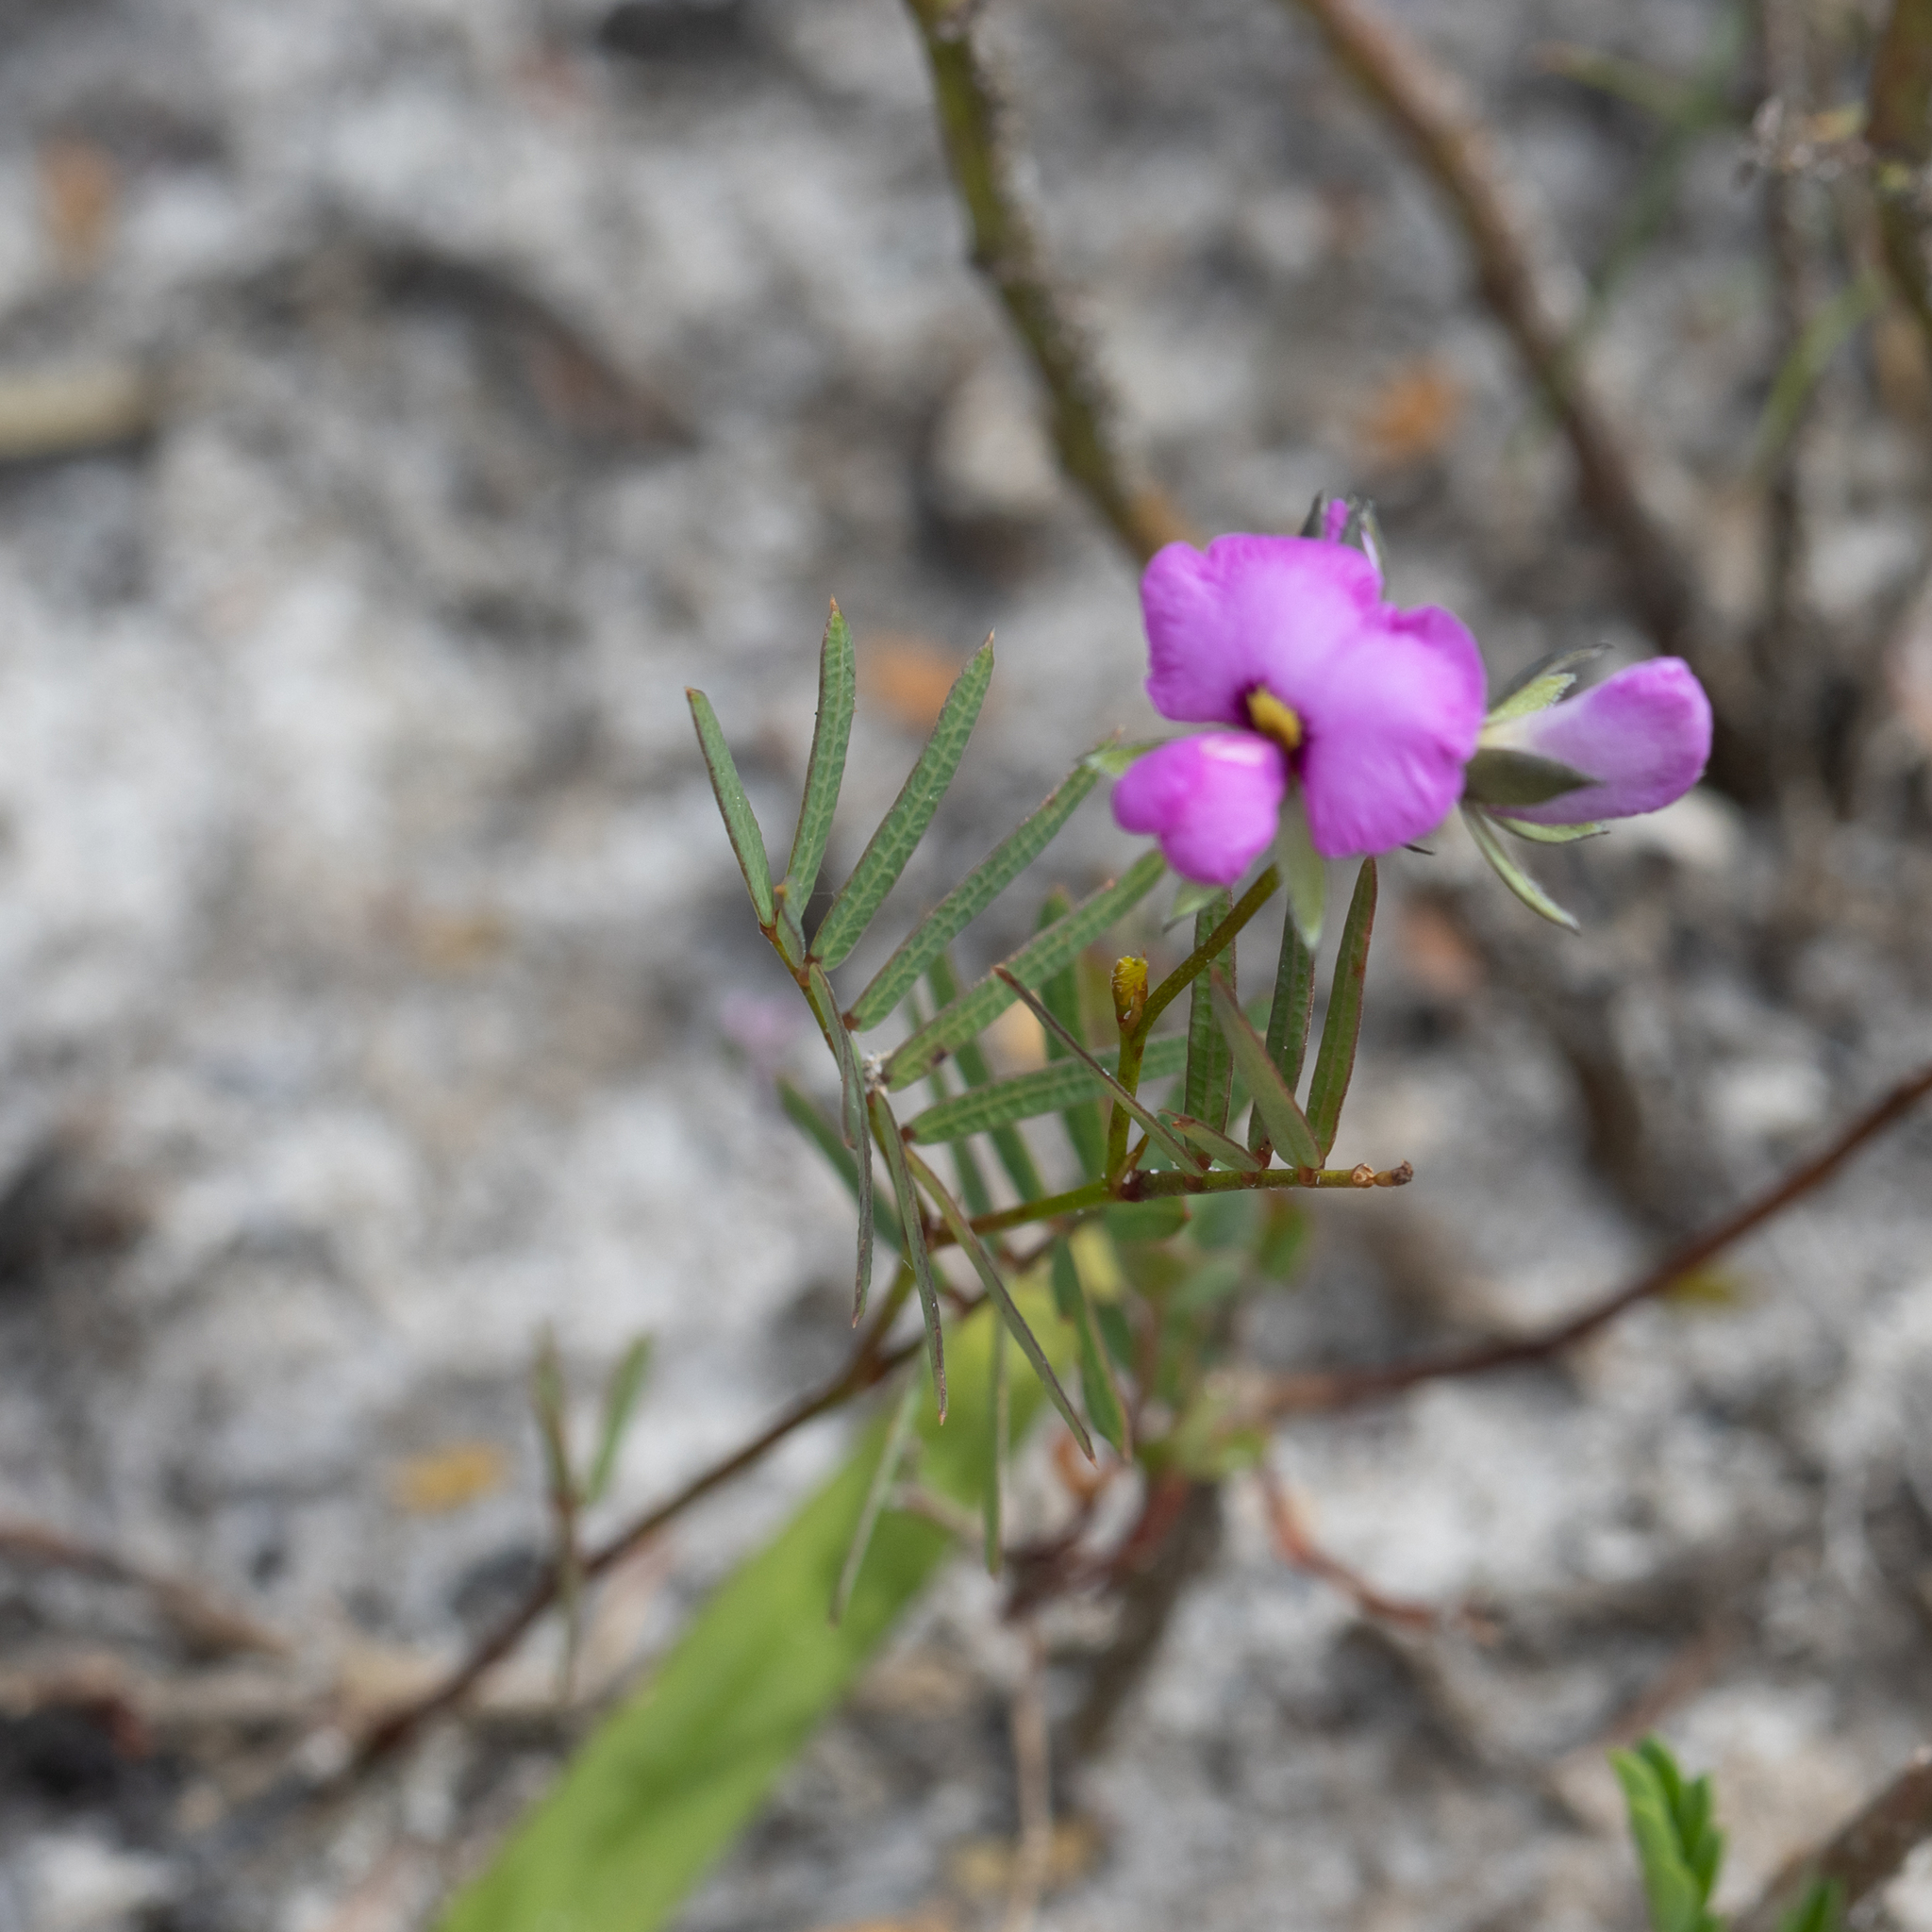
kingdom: Plantae
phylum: Tracheophyta
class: Magnoliopsida
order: Fabales
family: Fabaceae
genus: Gompholobium
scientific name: Gompholobium knightianum
